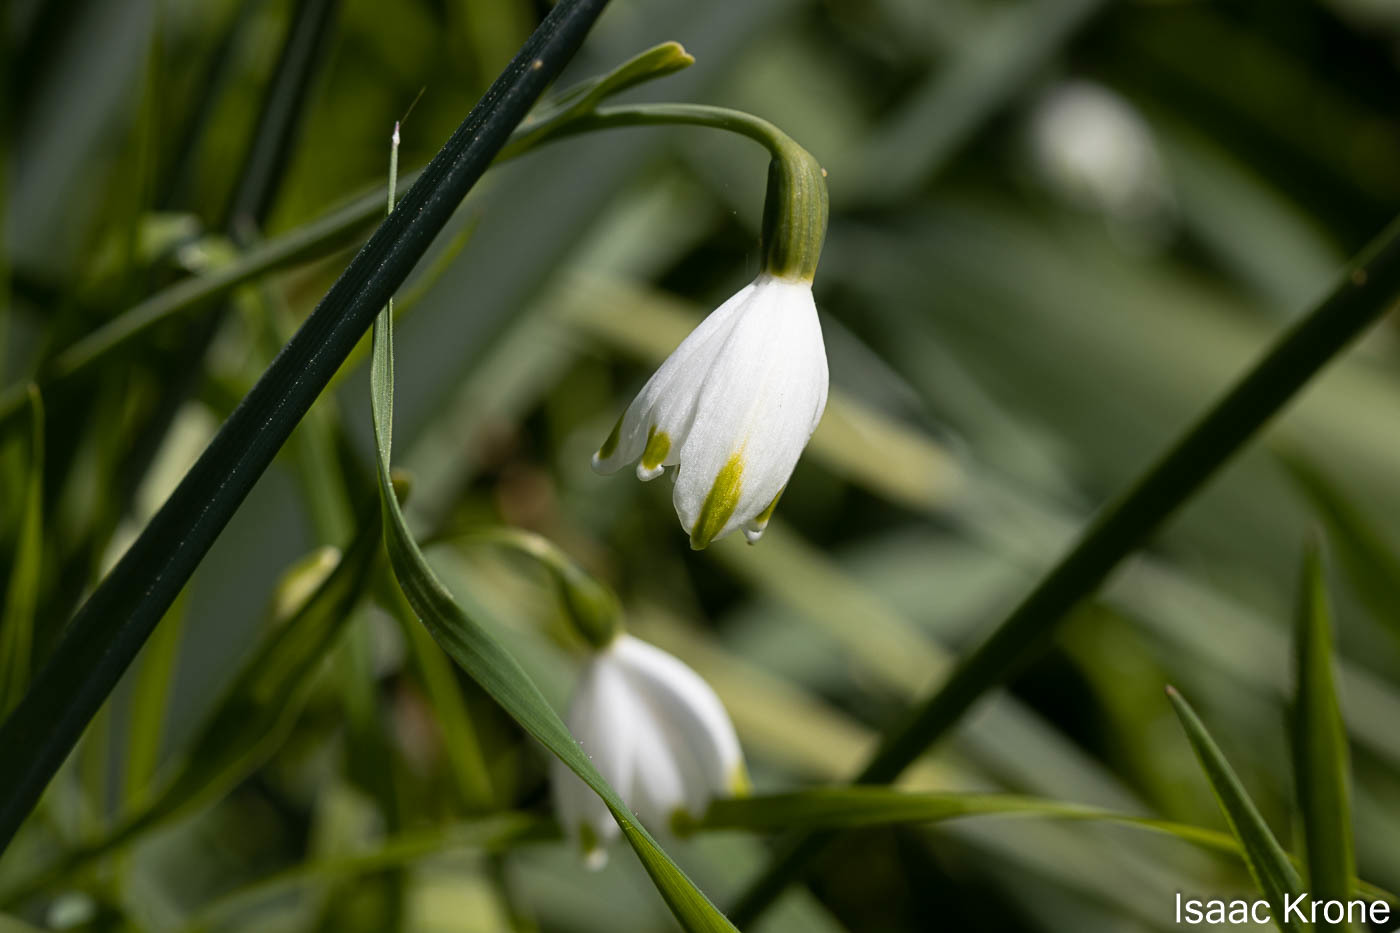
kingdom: Plantae
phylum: Tracheophyta
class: Liliopsida
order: Asparagales
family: Amaryllidaceae
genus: Leucojum
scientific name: Leucojum aestivum
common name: Summer snowflake
